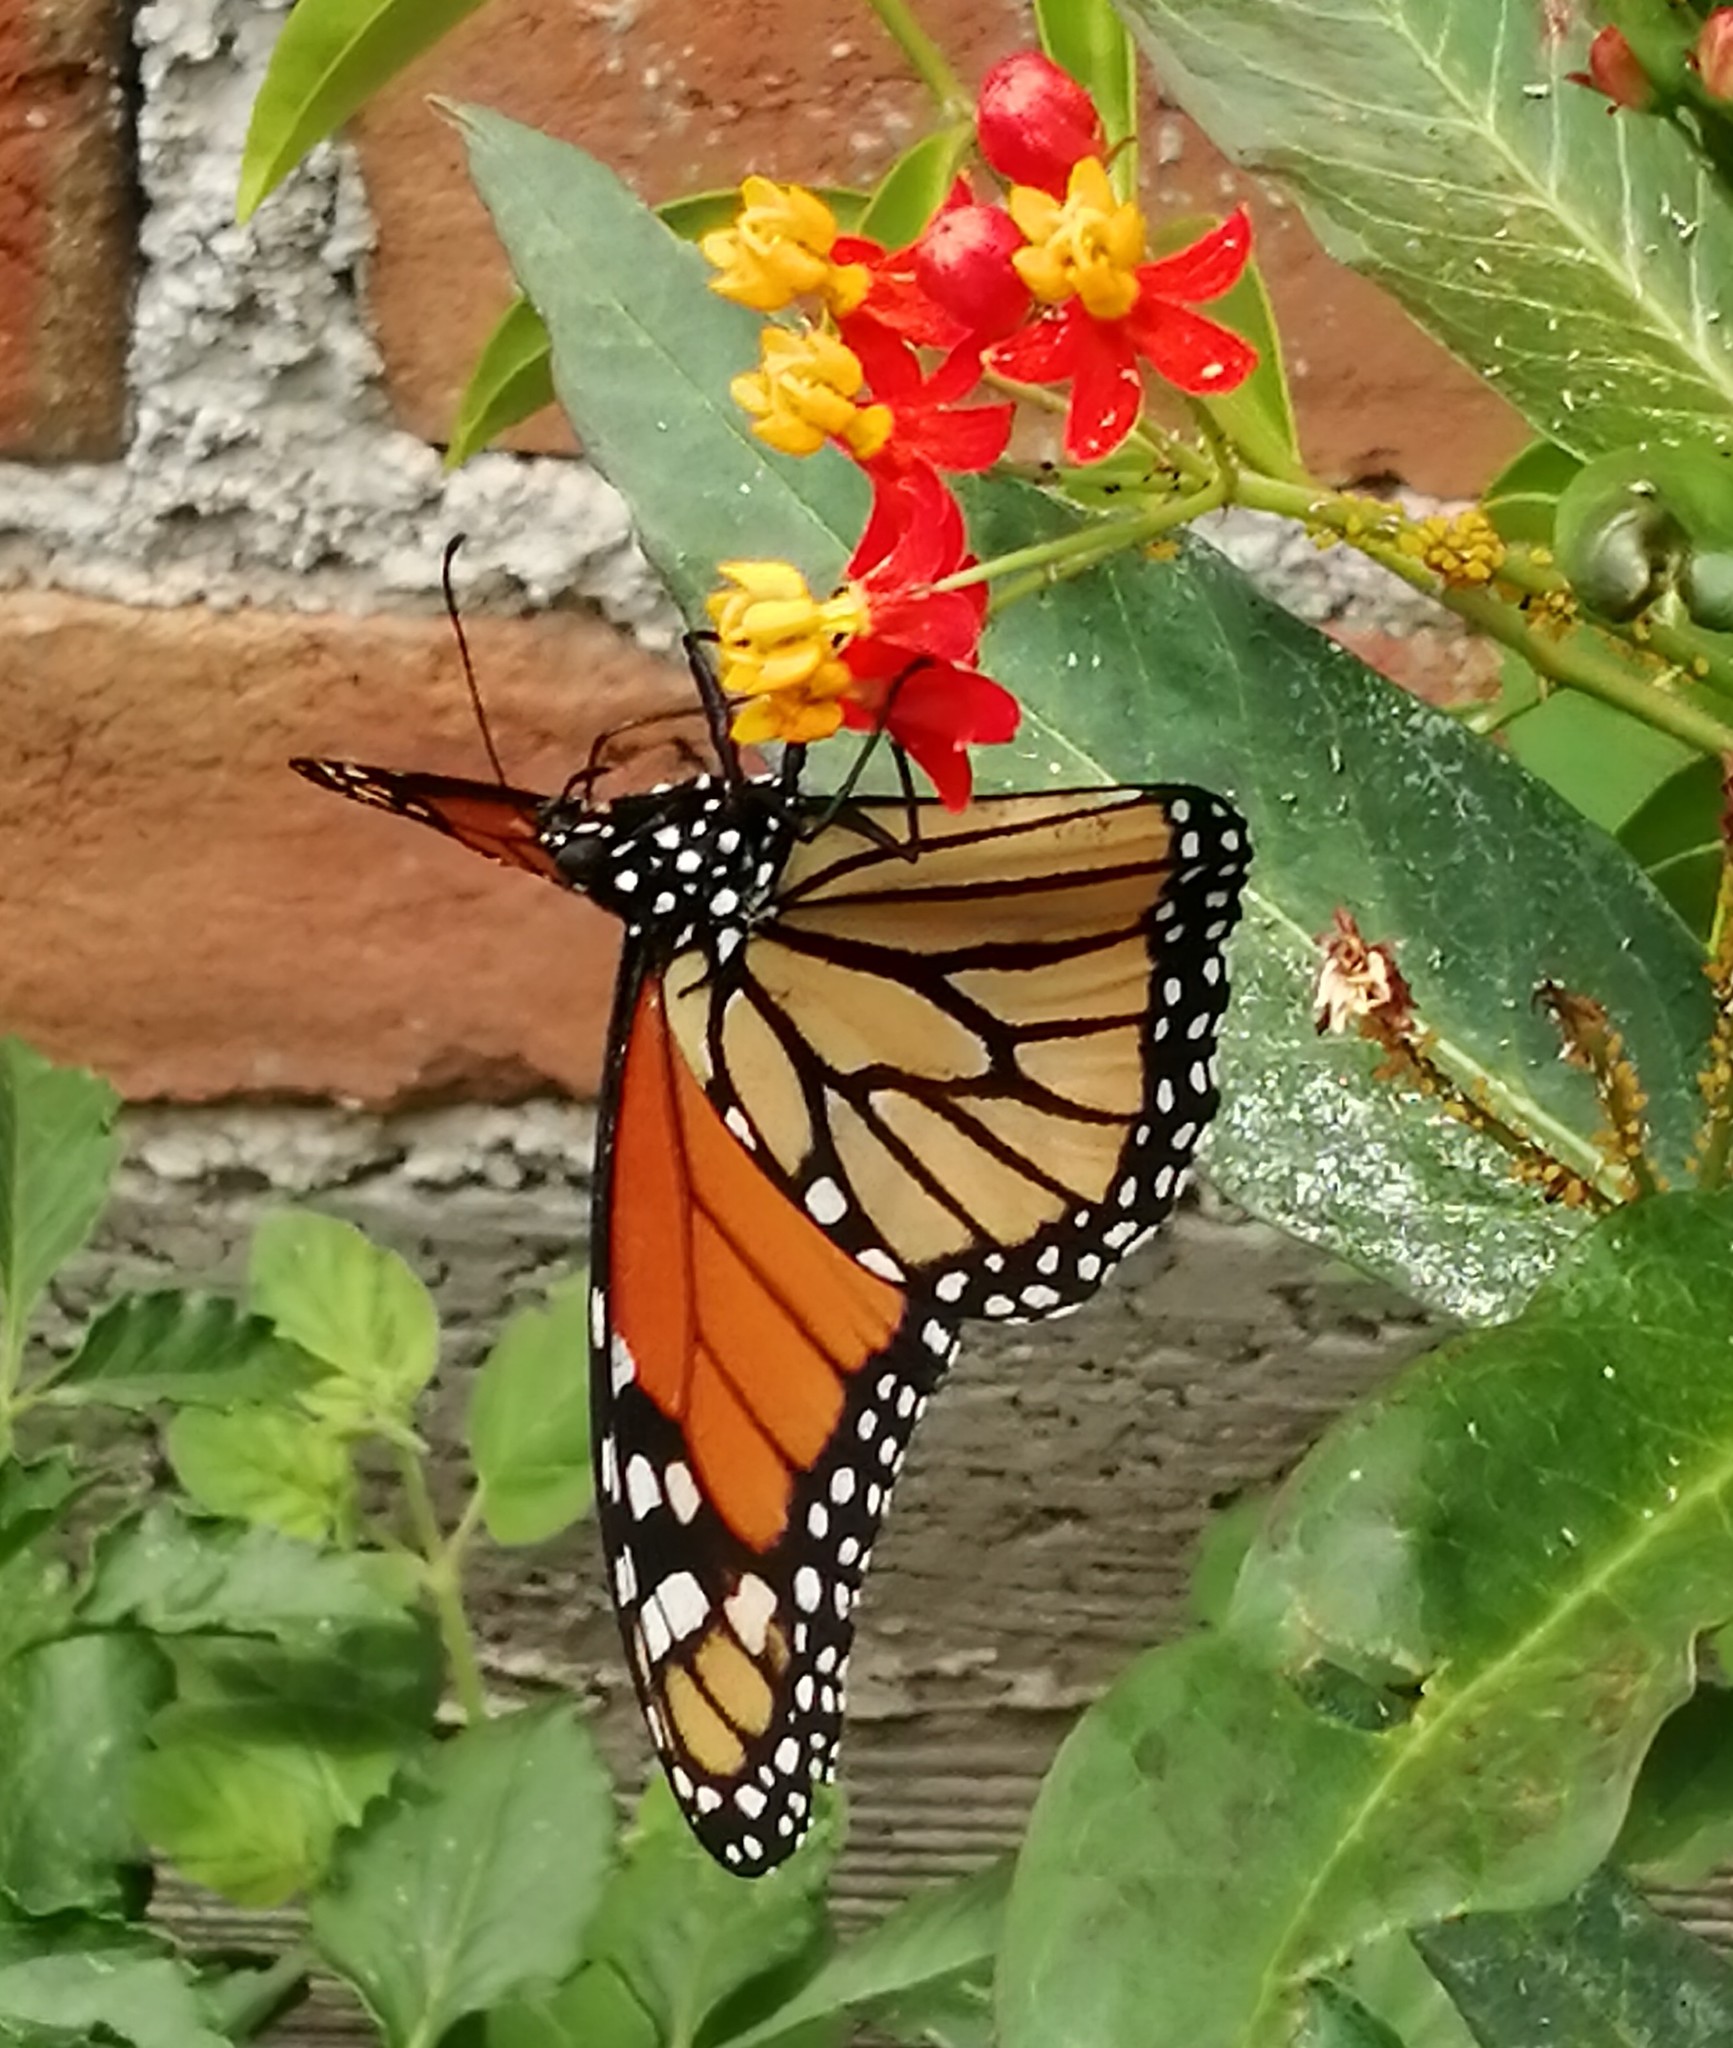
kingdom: Animalia
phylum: Arthropoda
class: Insecta
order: Lepidoptera
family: Nymphalidae
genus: Danaus
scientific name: Danaus plexippus
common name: Monarch
